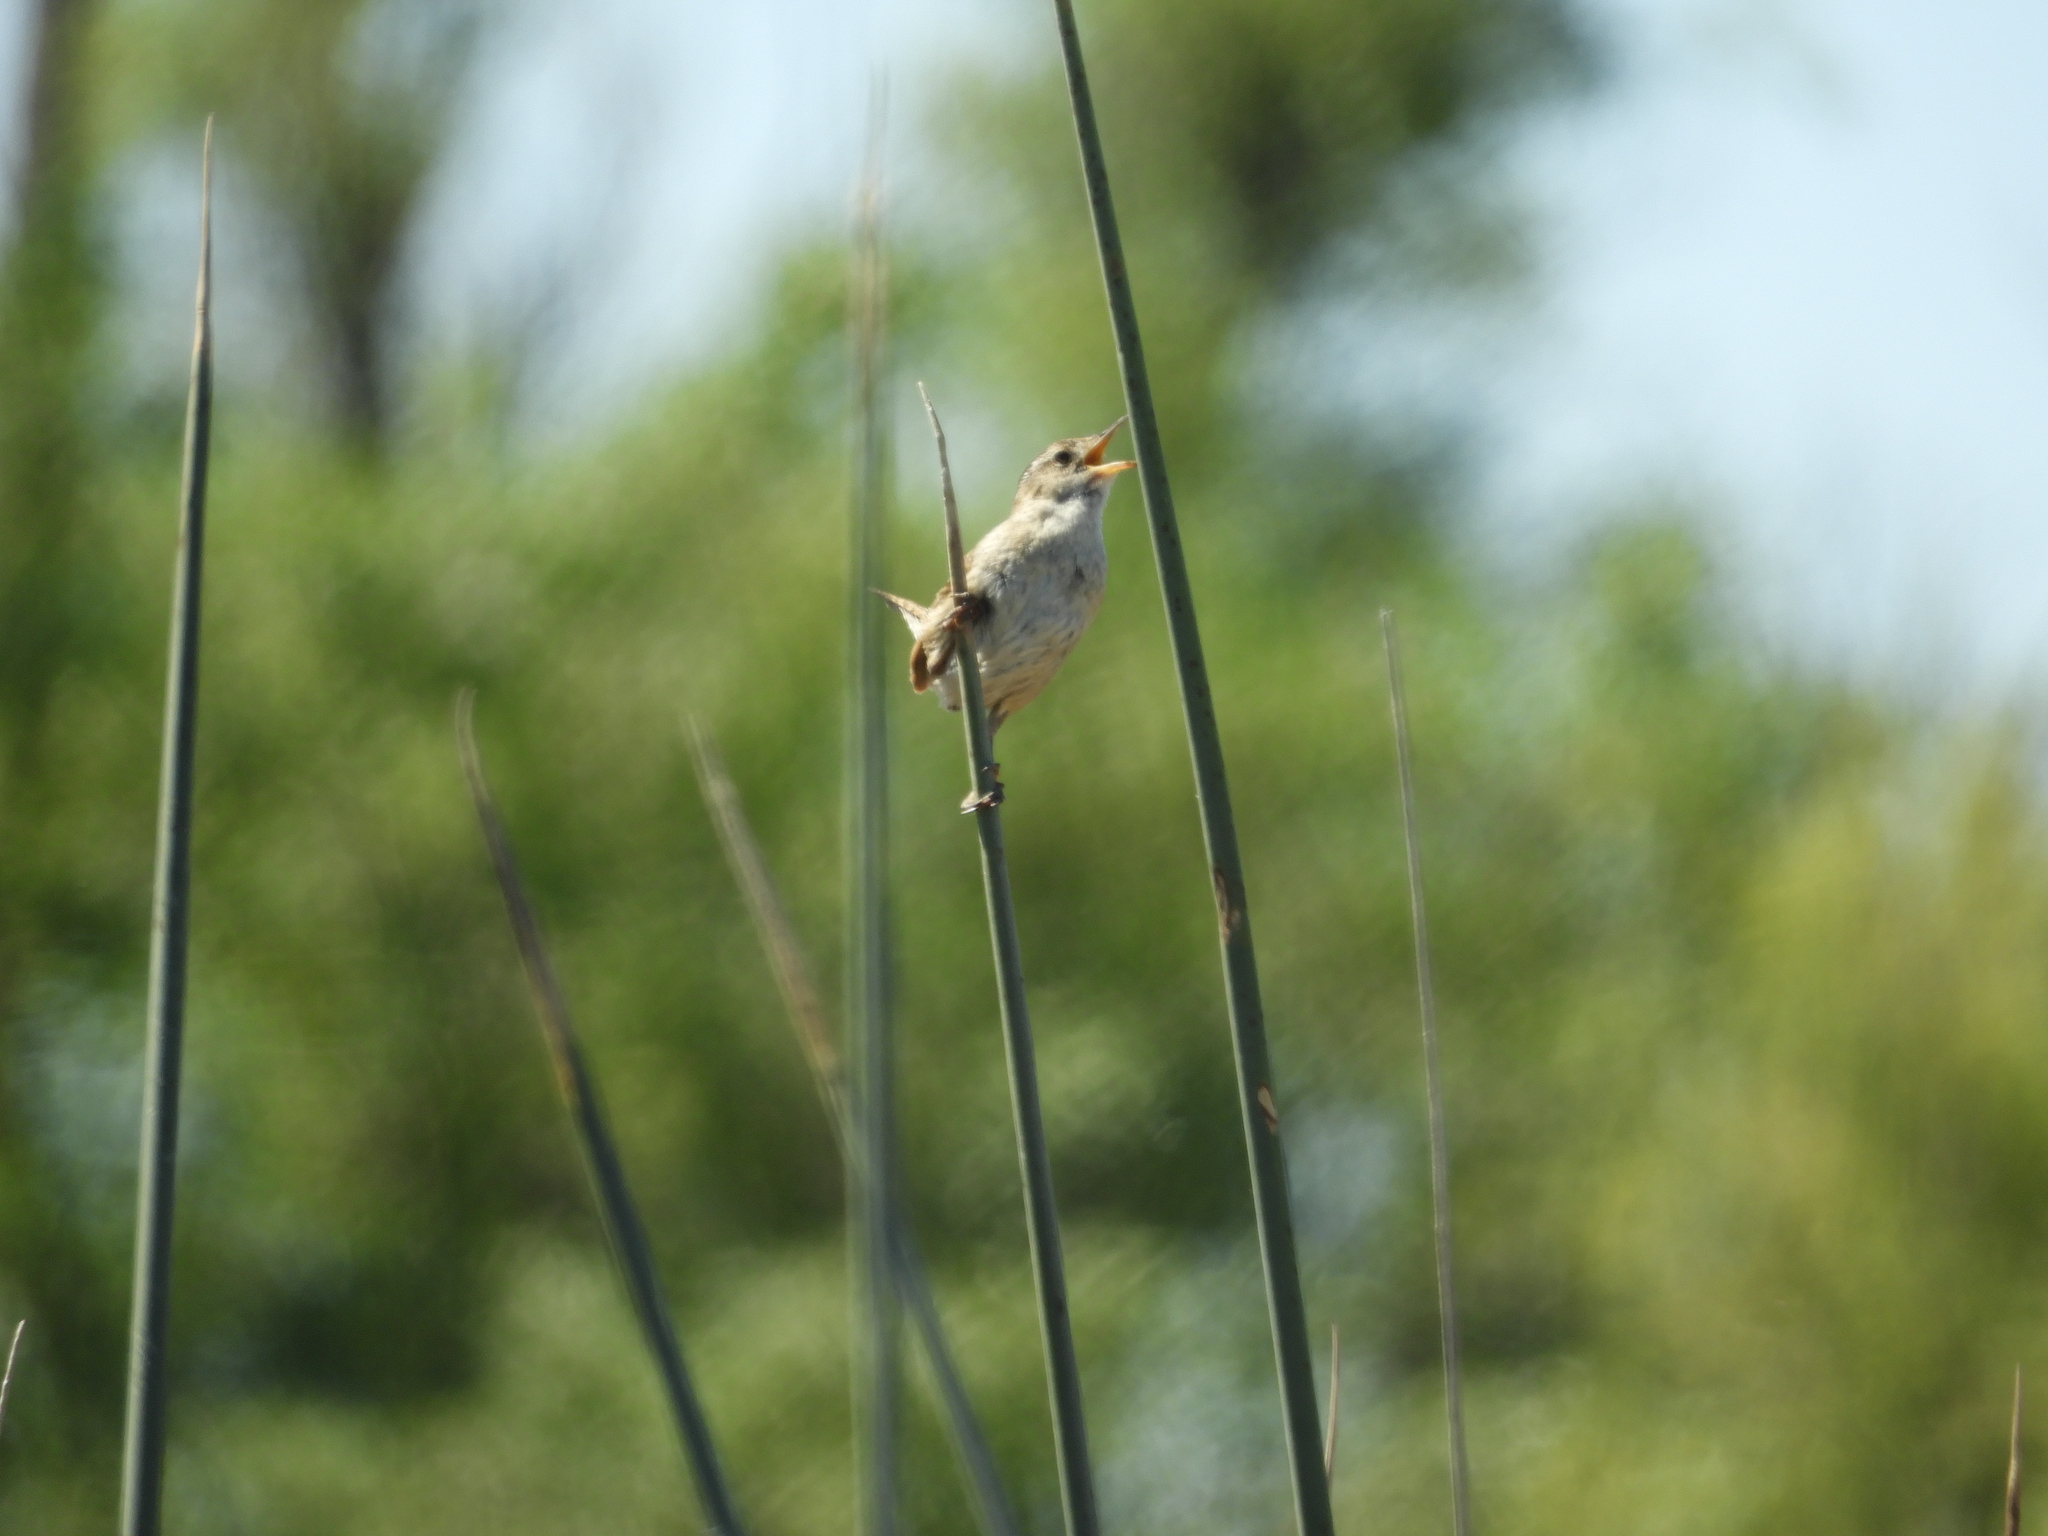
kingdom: Animalia
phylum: Chordata
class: Aves
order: Passeriformes
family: Troglodytidae
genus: Cistothorus
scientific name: Cistothorus palustris
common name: Marsh wren
